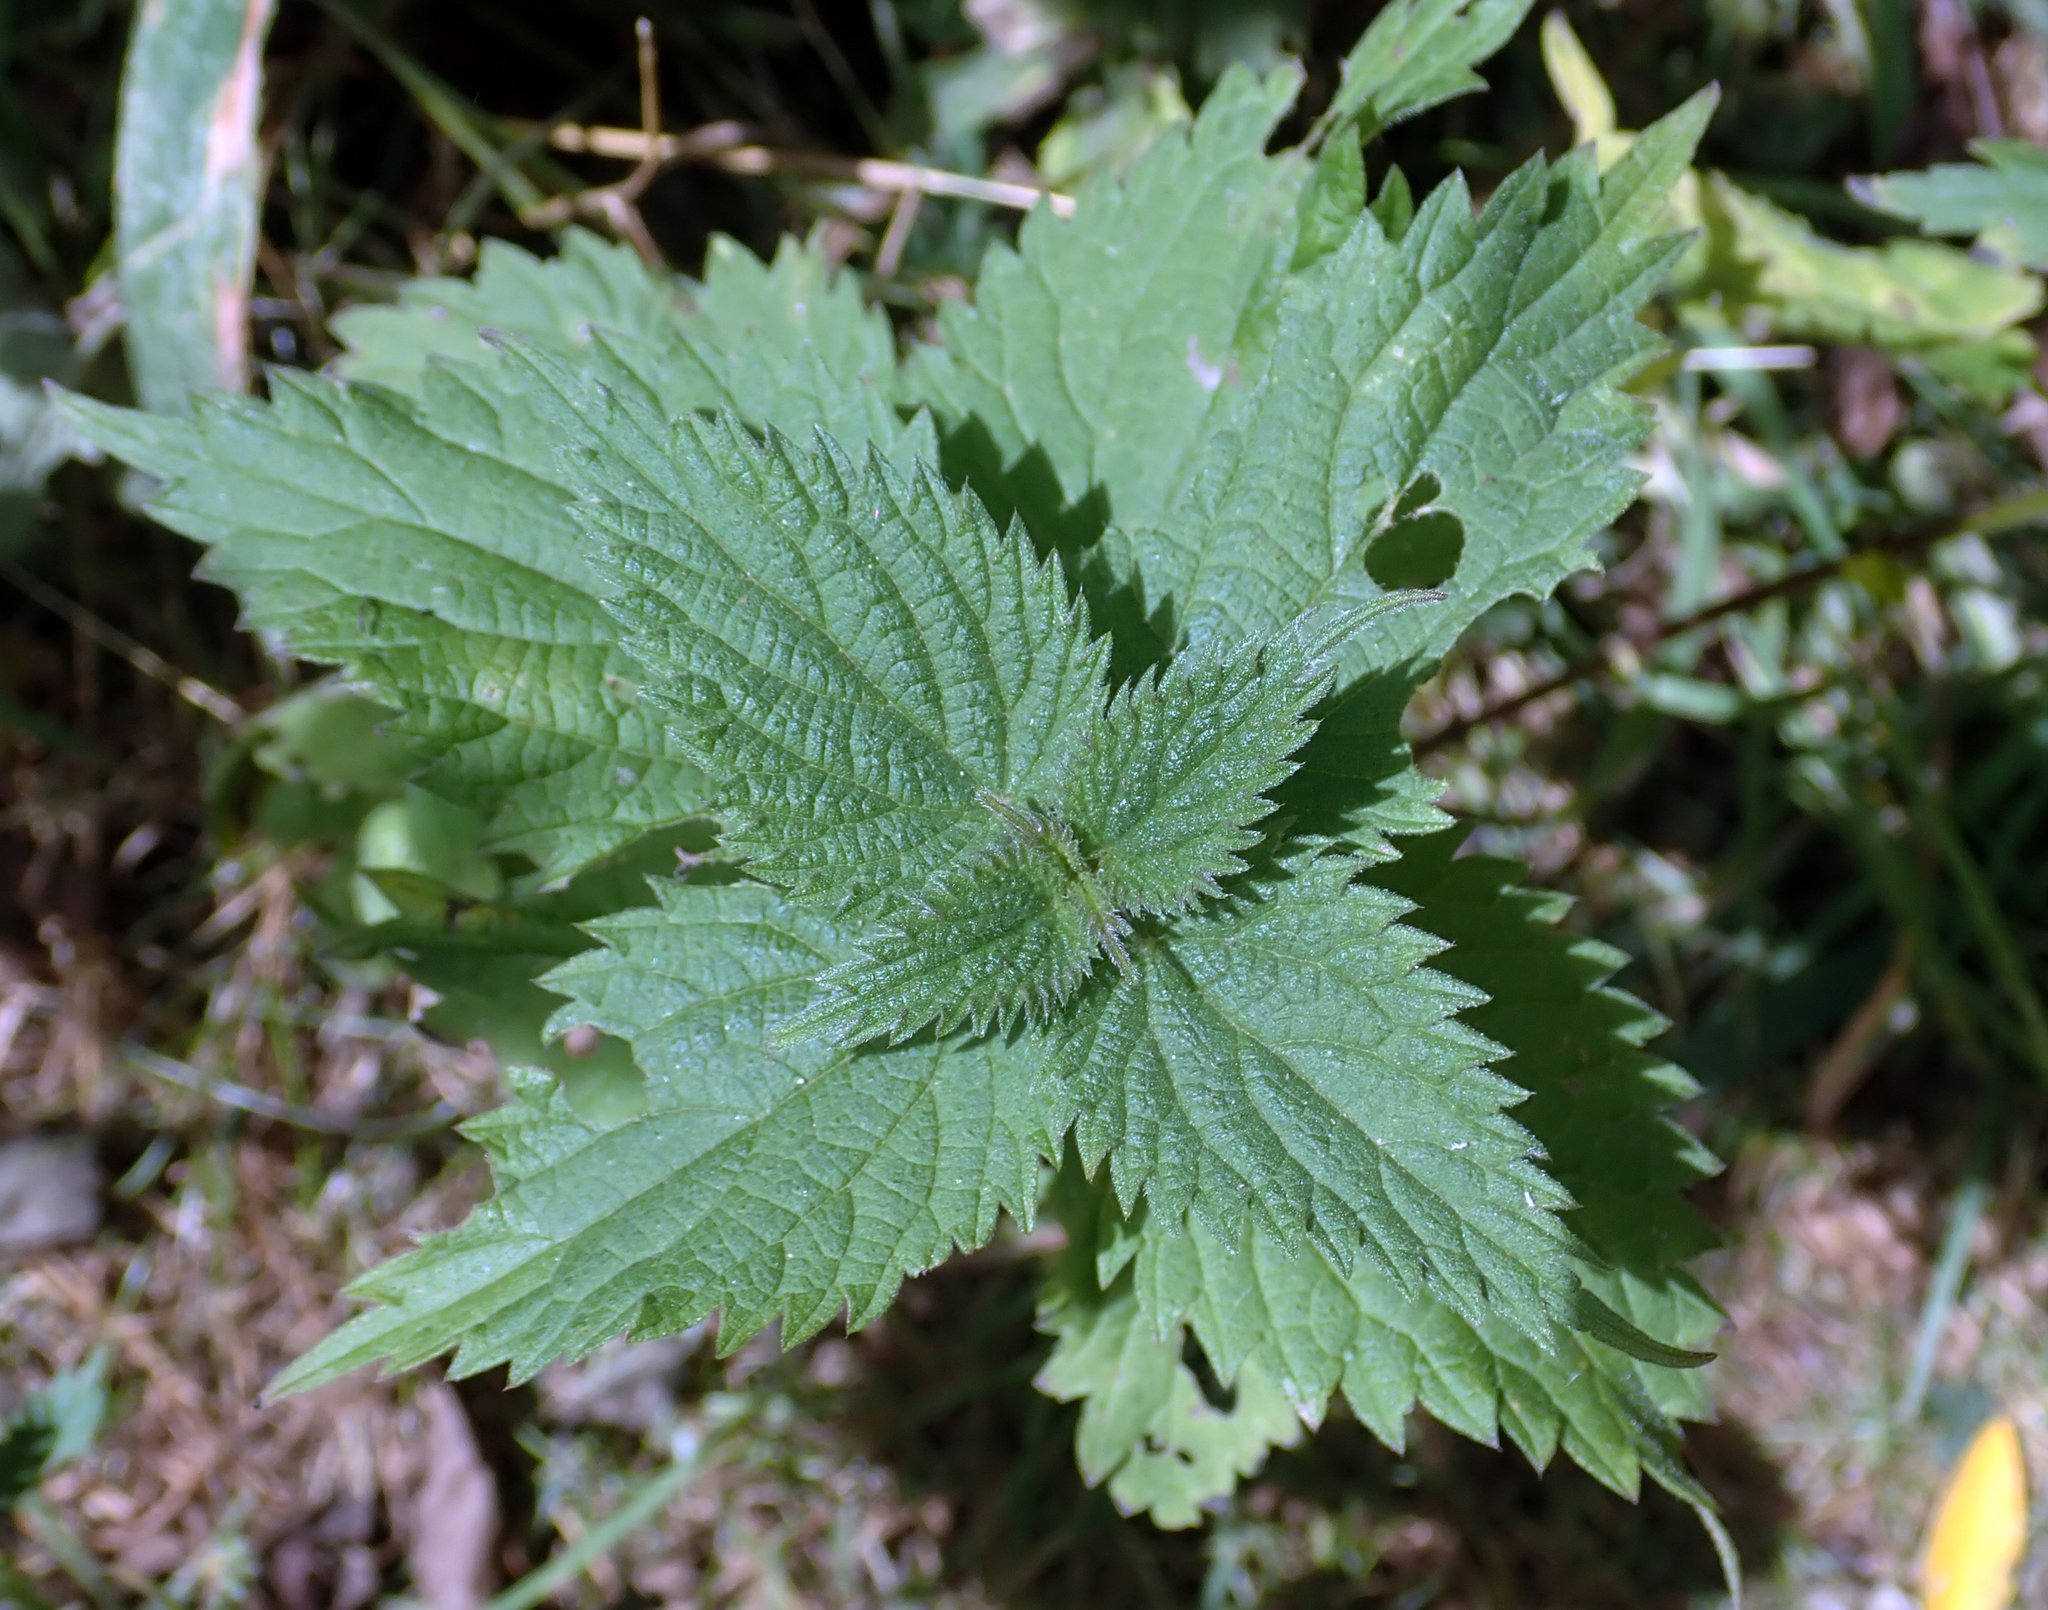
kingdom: Plantae
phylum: Tracheophyta
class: Magnoliopsida
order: Rosales
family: Urticaceae
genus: Urtica
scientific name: Urtica dioica
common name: Common nettle
